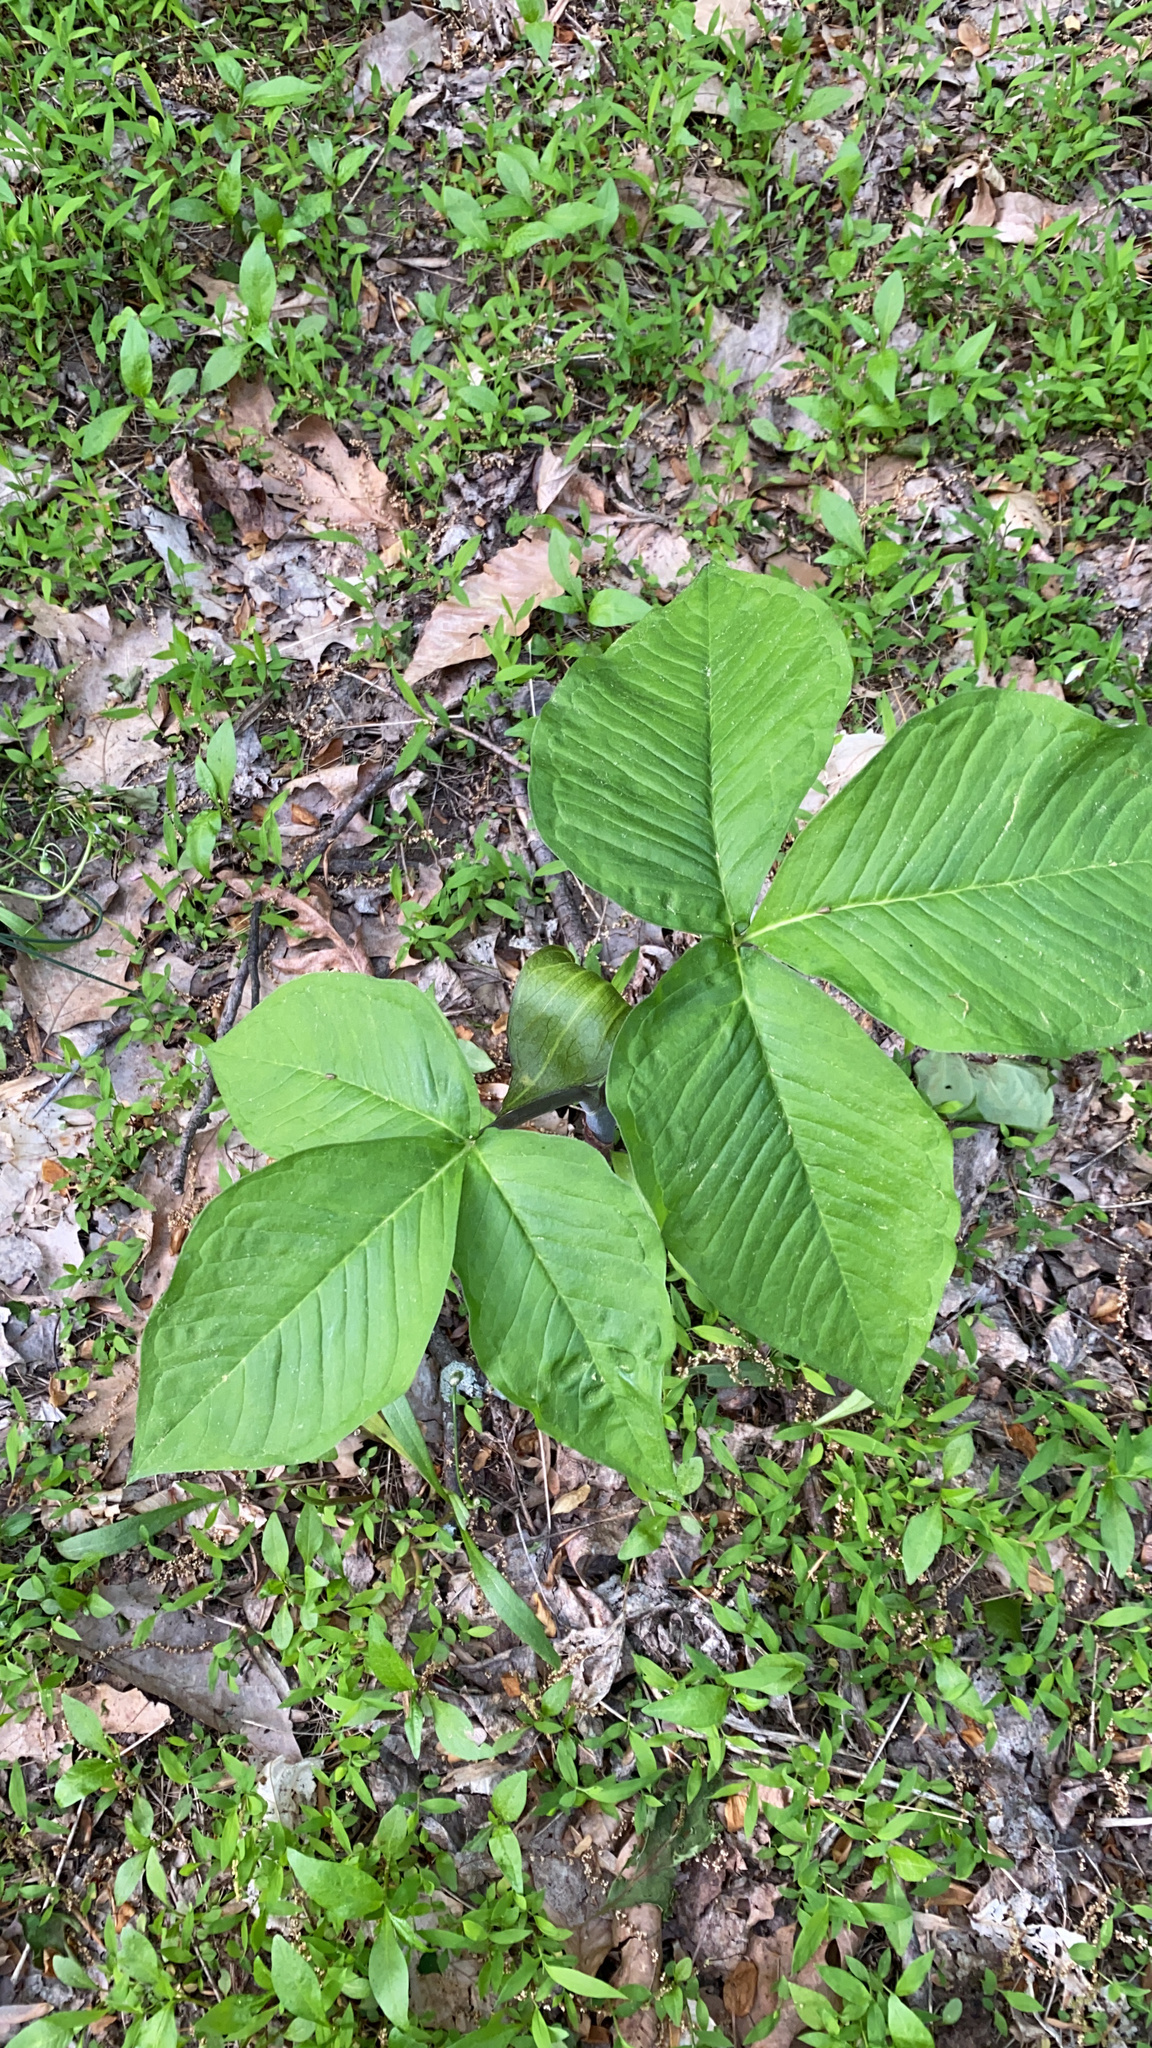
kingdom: Plantae
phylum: Tracheophyta
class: Liliopsida
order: Alismatales
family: Araceae
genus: Arisaema
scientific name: Arisaema triphyllum
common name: Jack-in-the-pulpit
